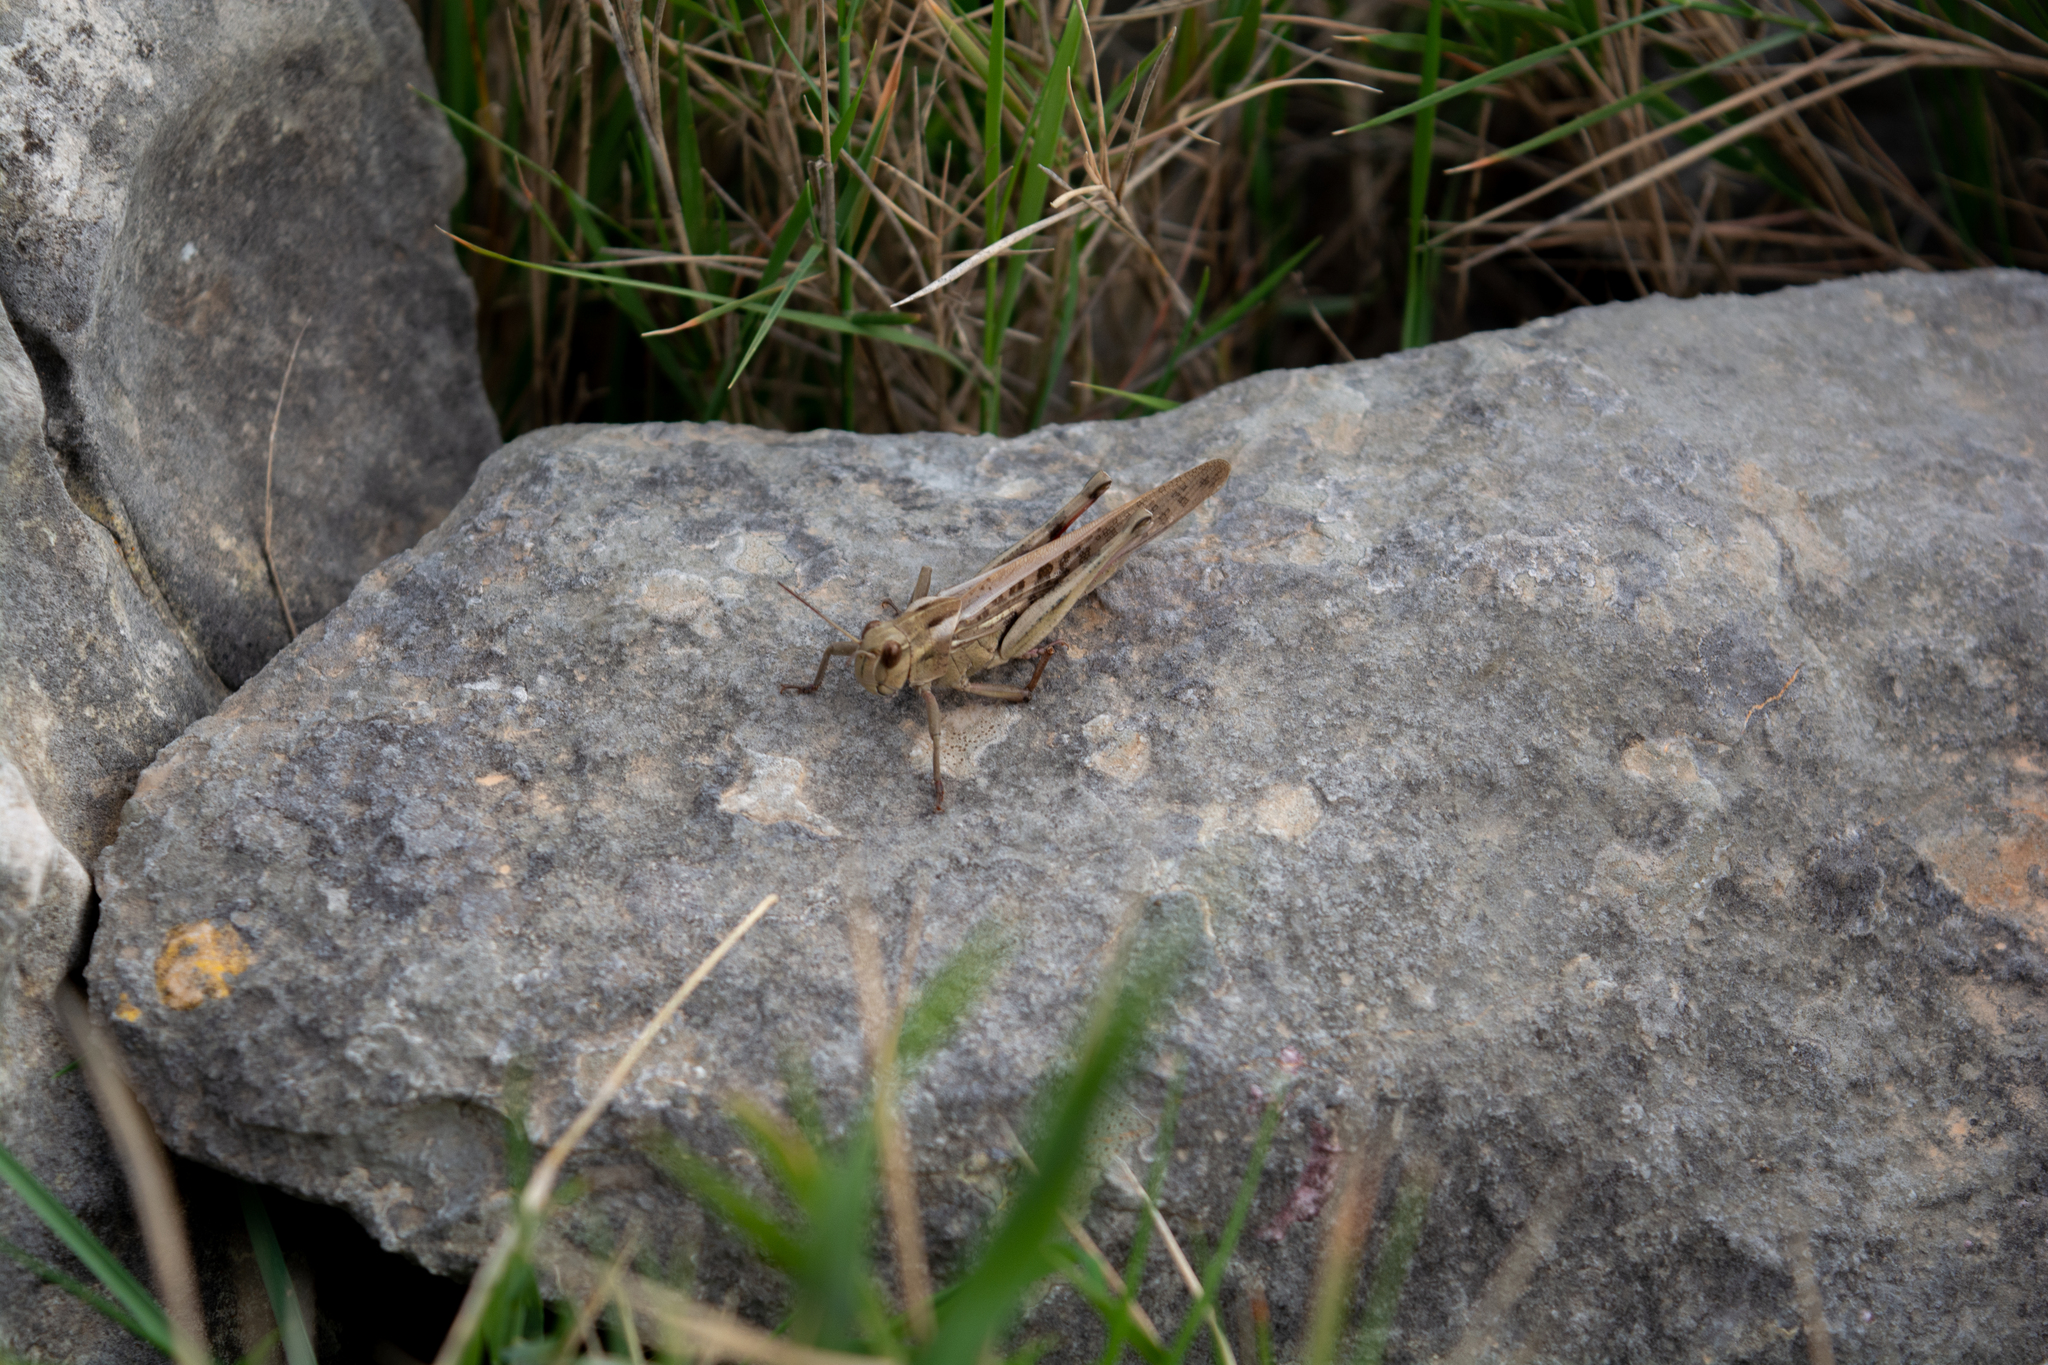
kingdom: Animalia
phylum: Arthropoda
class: Insecta
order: Orthoptera
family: Acrididae
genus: Locusta
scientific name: Locusta migratoria
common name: Migratory locust
